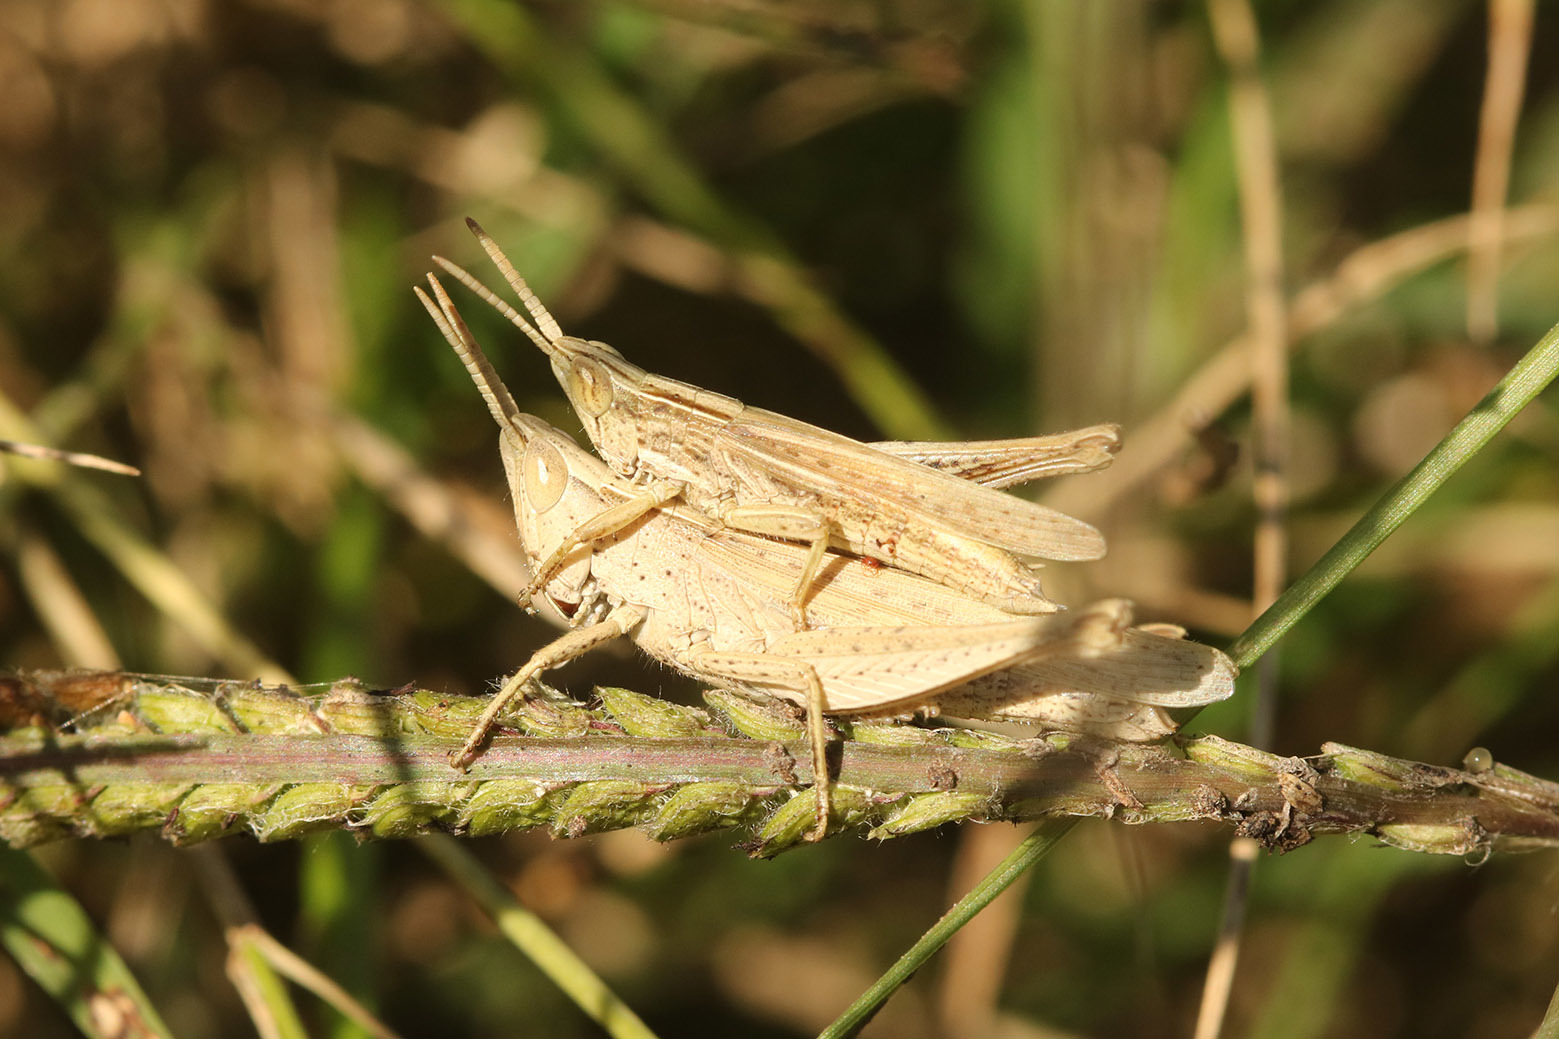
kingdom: Animalia
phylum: Arthropoda
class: Insecta
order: Orthoptera
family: Acrididae
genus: Laplatacris
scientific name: Laplatacris dispar
